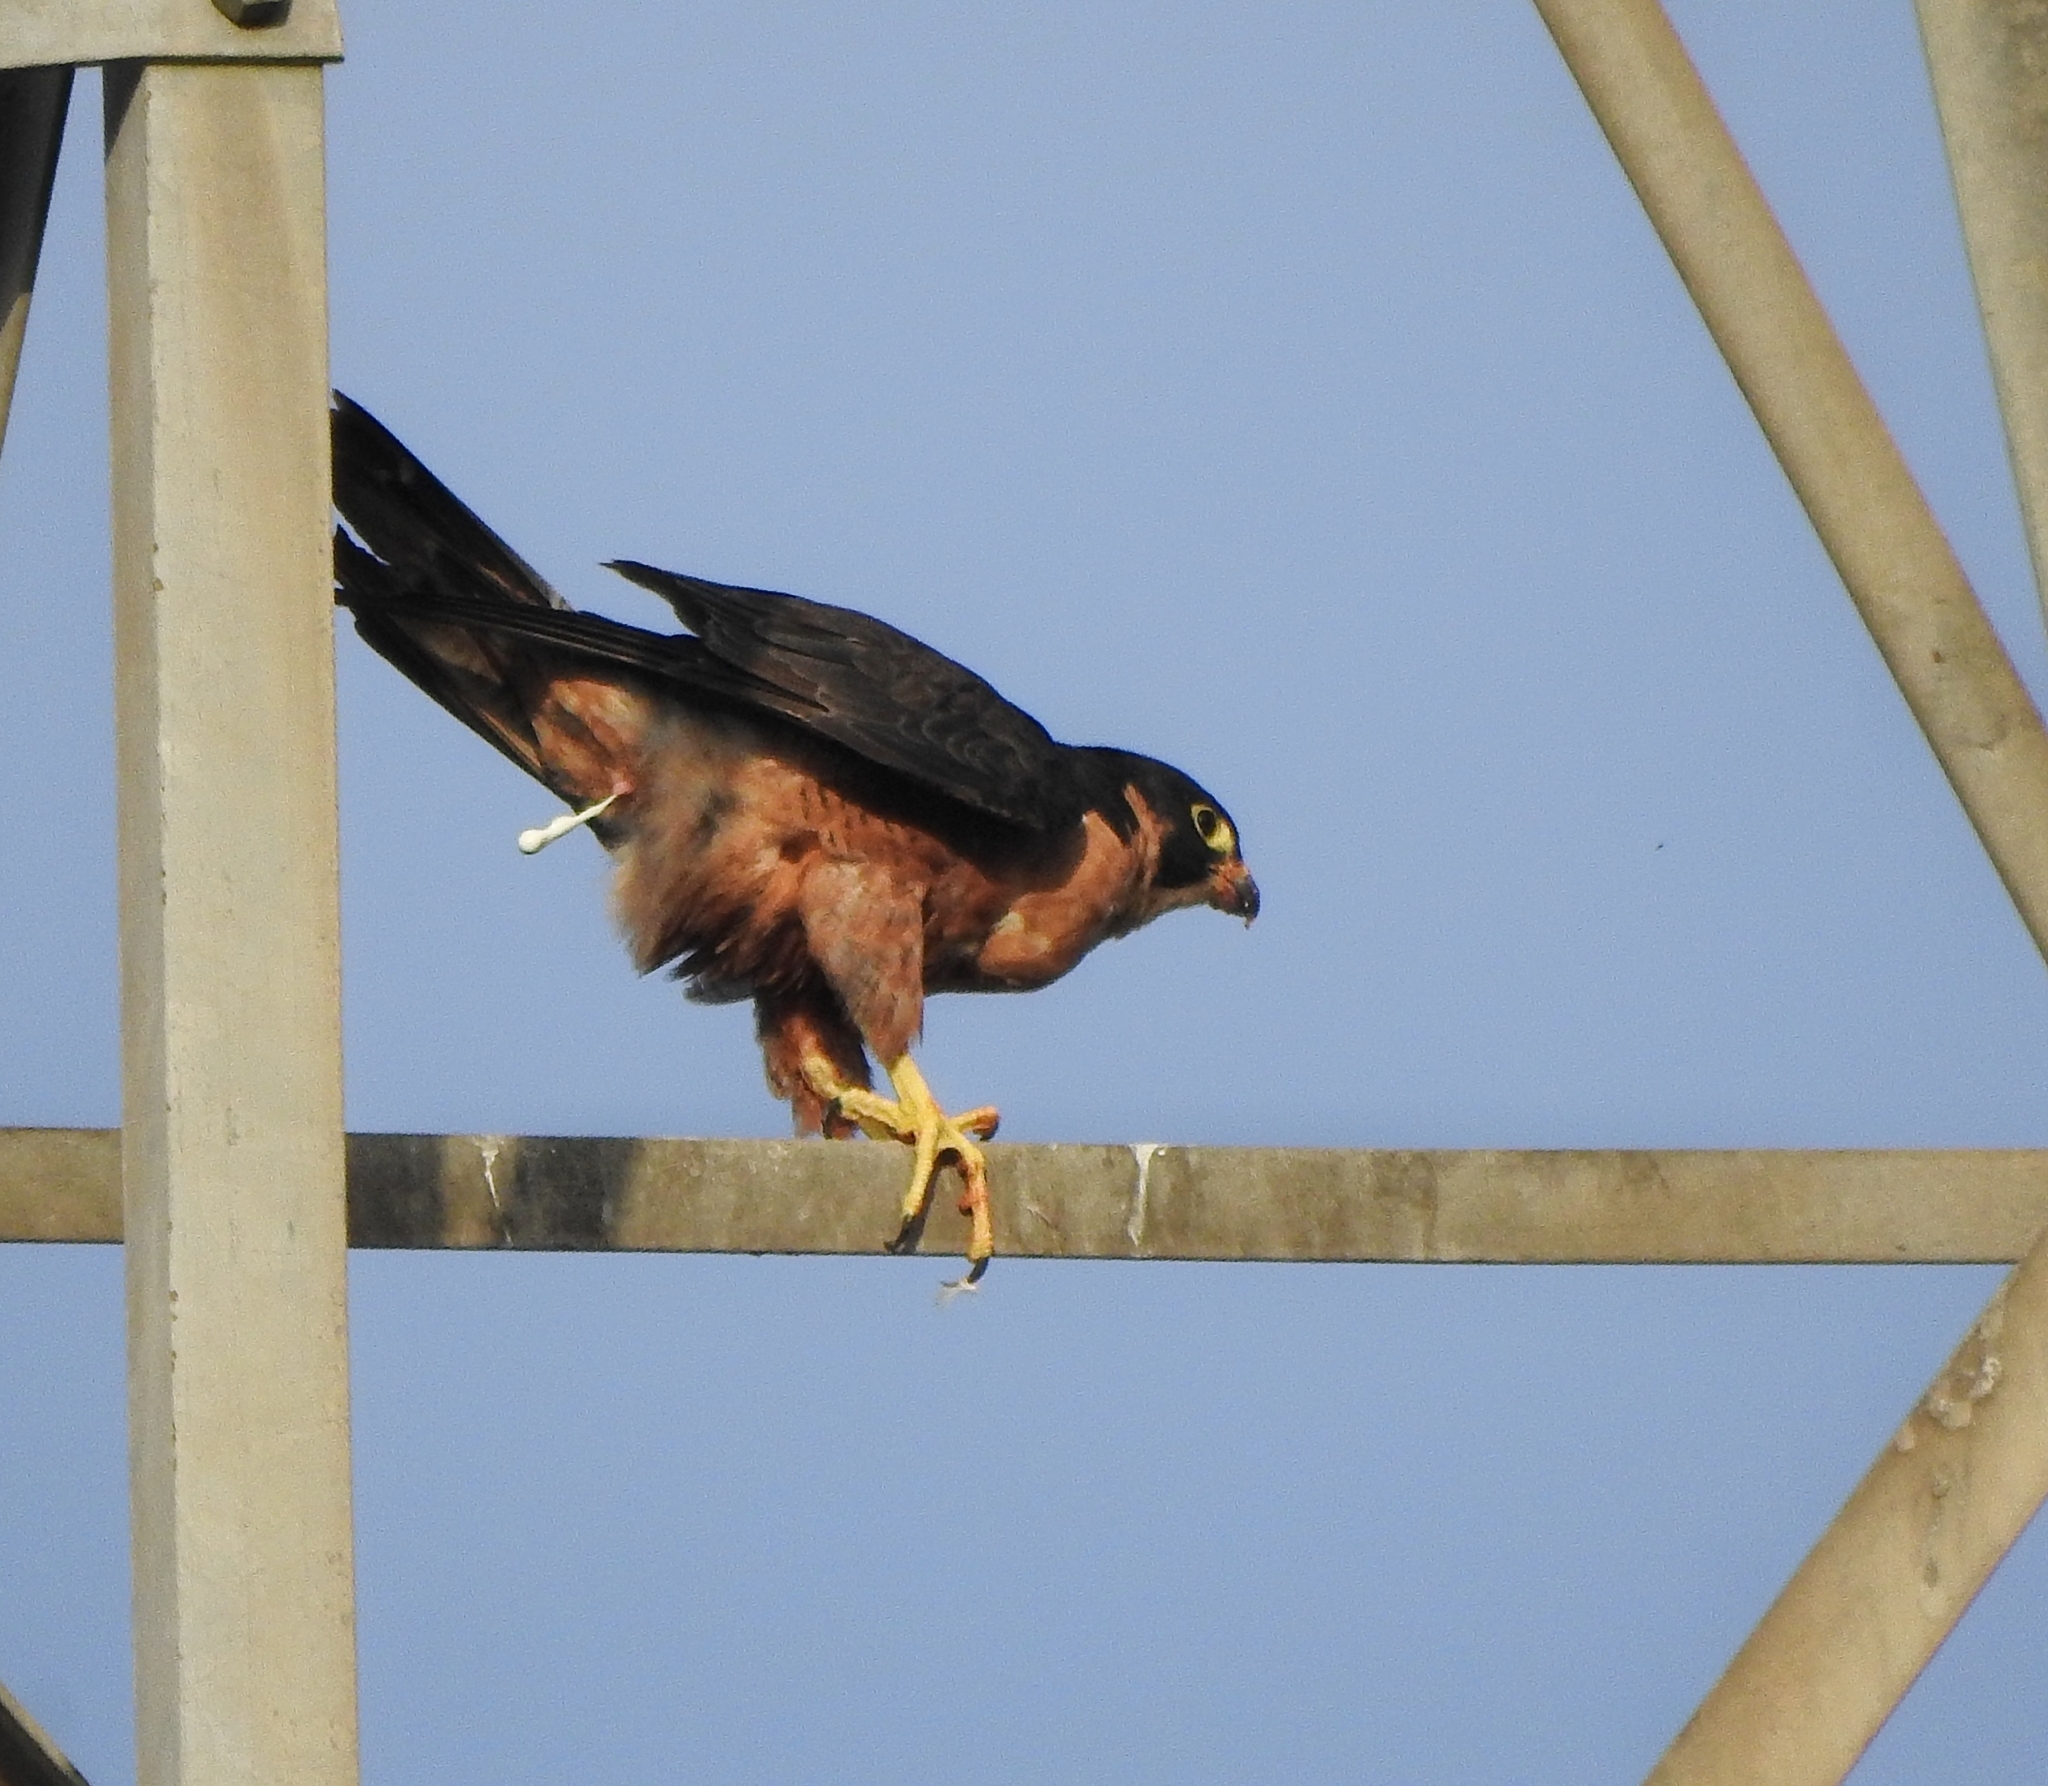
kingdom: Animalia
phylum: Chordata
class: Aves
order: Falconiformes
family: Falconidae
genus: Falco
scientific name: Falco peregrinus
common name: Peregrine falcon
